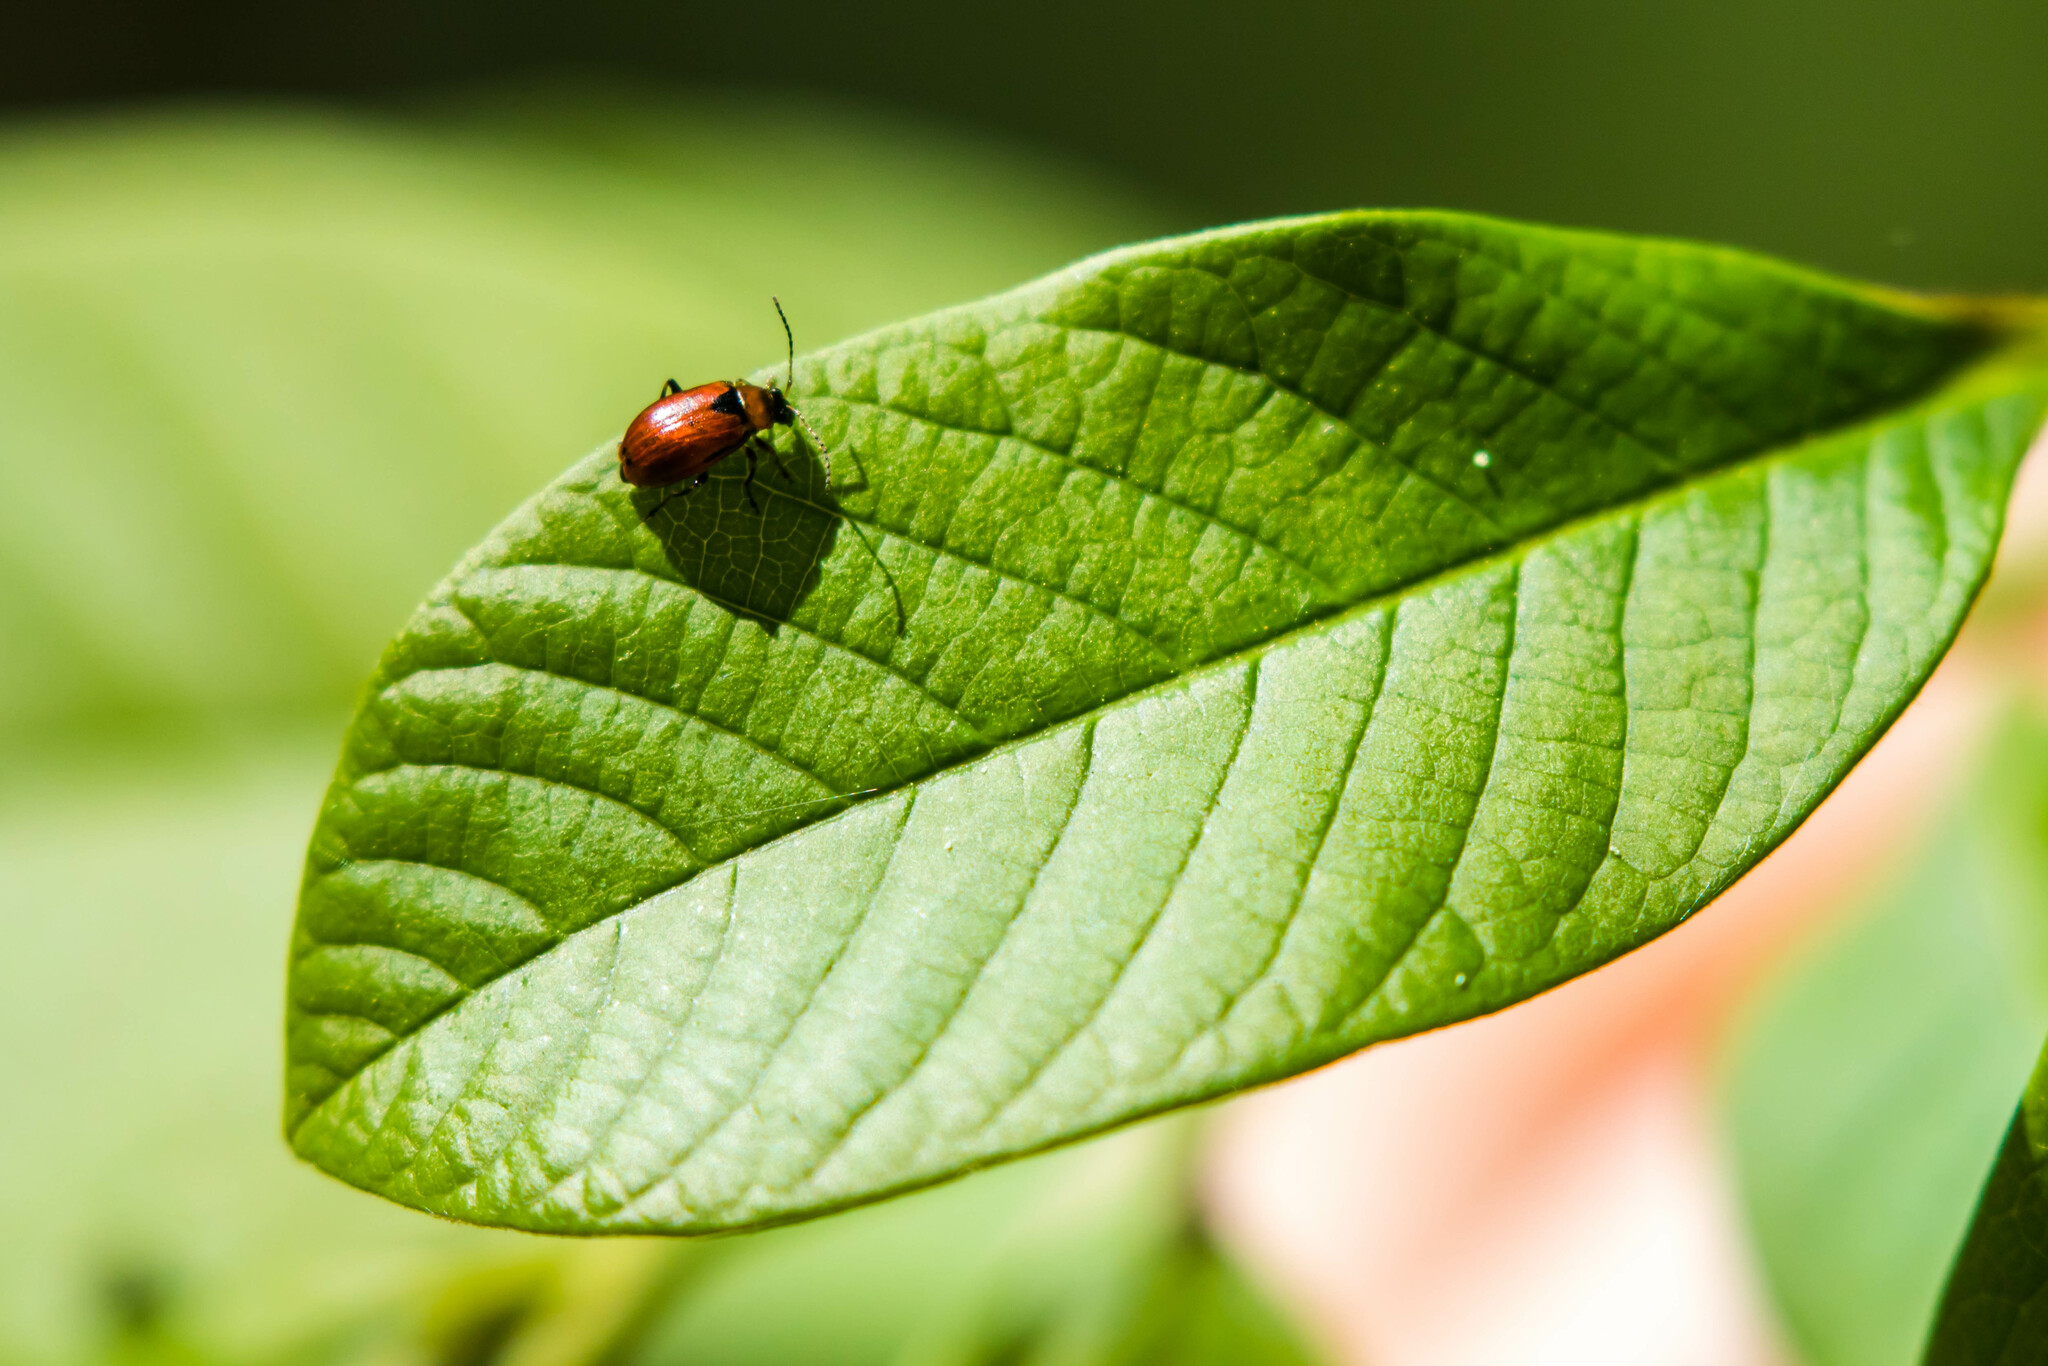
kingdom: Animalia
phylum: Arthropoda
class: Insecta
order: Coleoptera
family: Chrysomelidae
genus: Cerotoma
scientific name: Cerotoma trifurcata
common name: Bean leaf beetle
